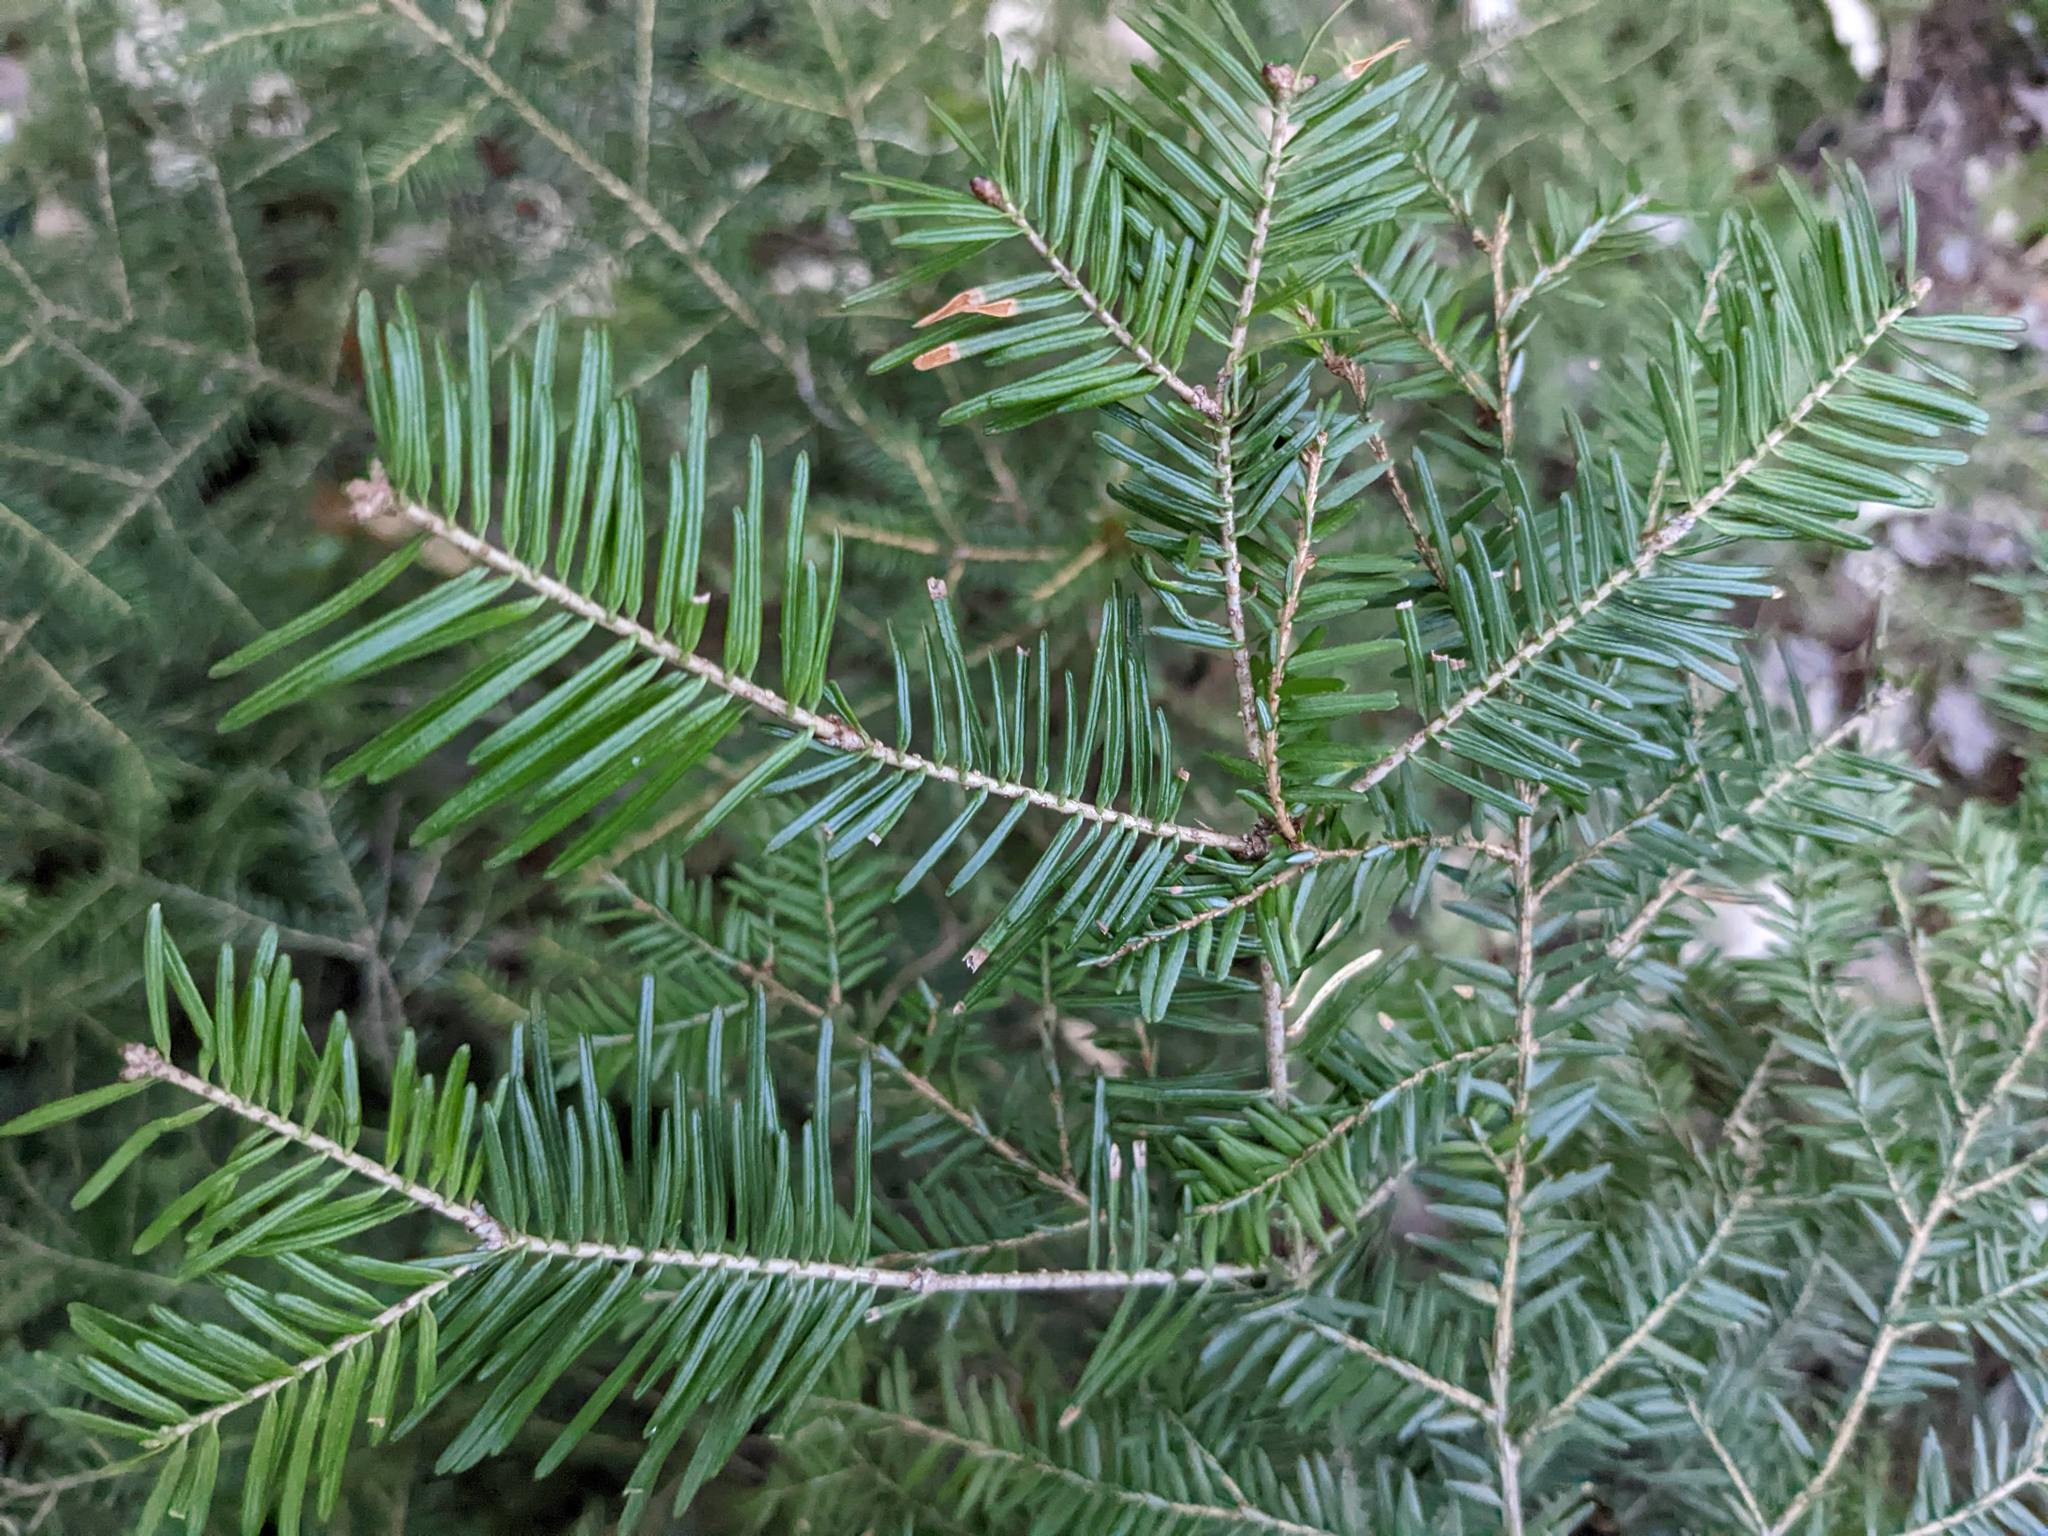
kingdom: Plantae
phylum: Tracheophyta
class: Pinopsida
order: Pinales
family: Pinaceae
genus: Abies
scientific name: Abies balsamea
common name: Balsam fir
